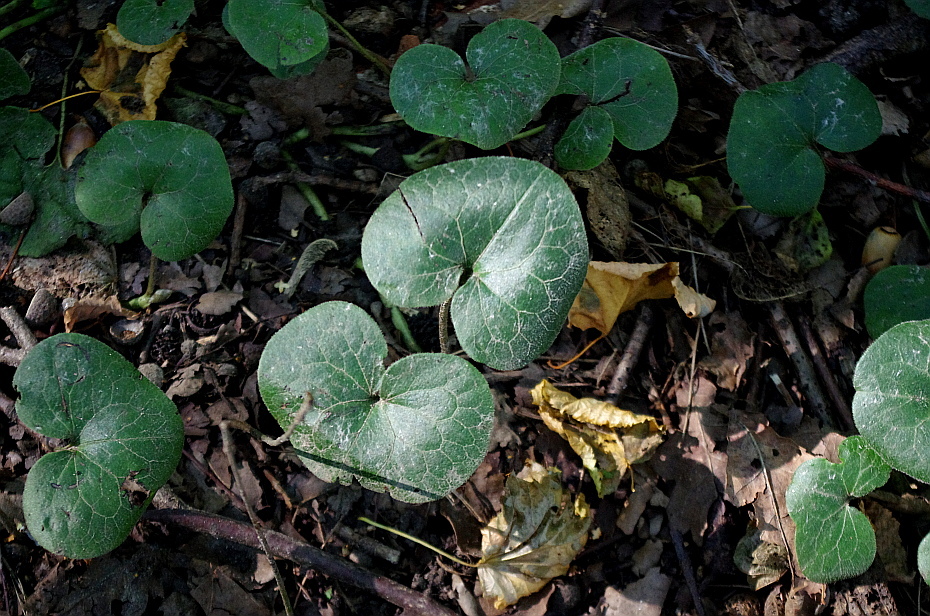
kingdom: Plantae
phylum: Tracheophyta
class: Magnoliopsida
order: Piperales
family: Aristolochiaceae
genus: Asarum
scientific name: Asarum europaeum
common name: Asarabacca
